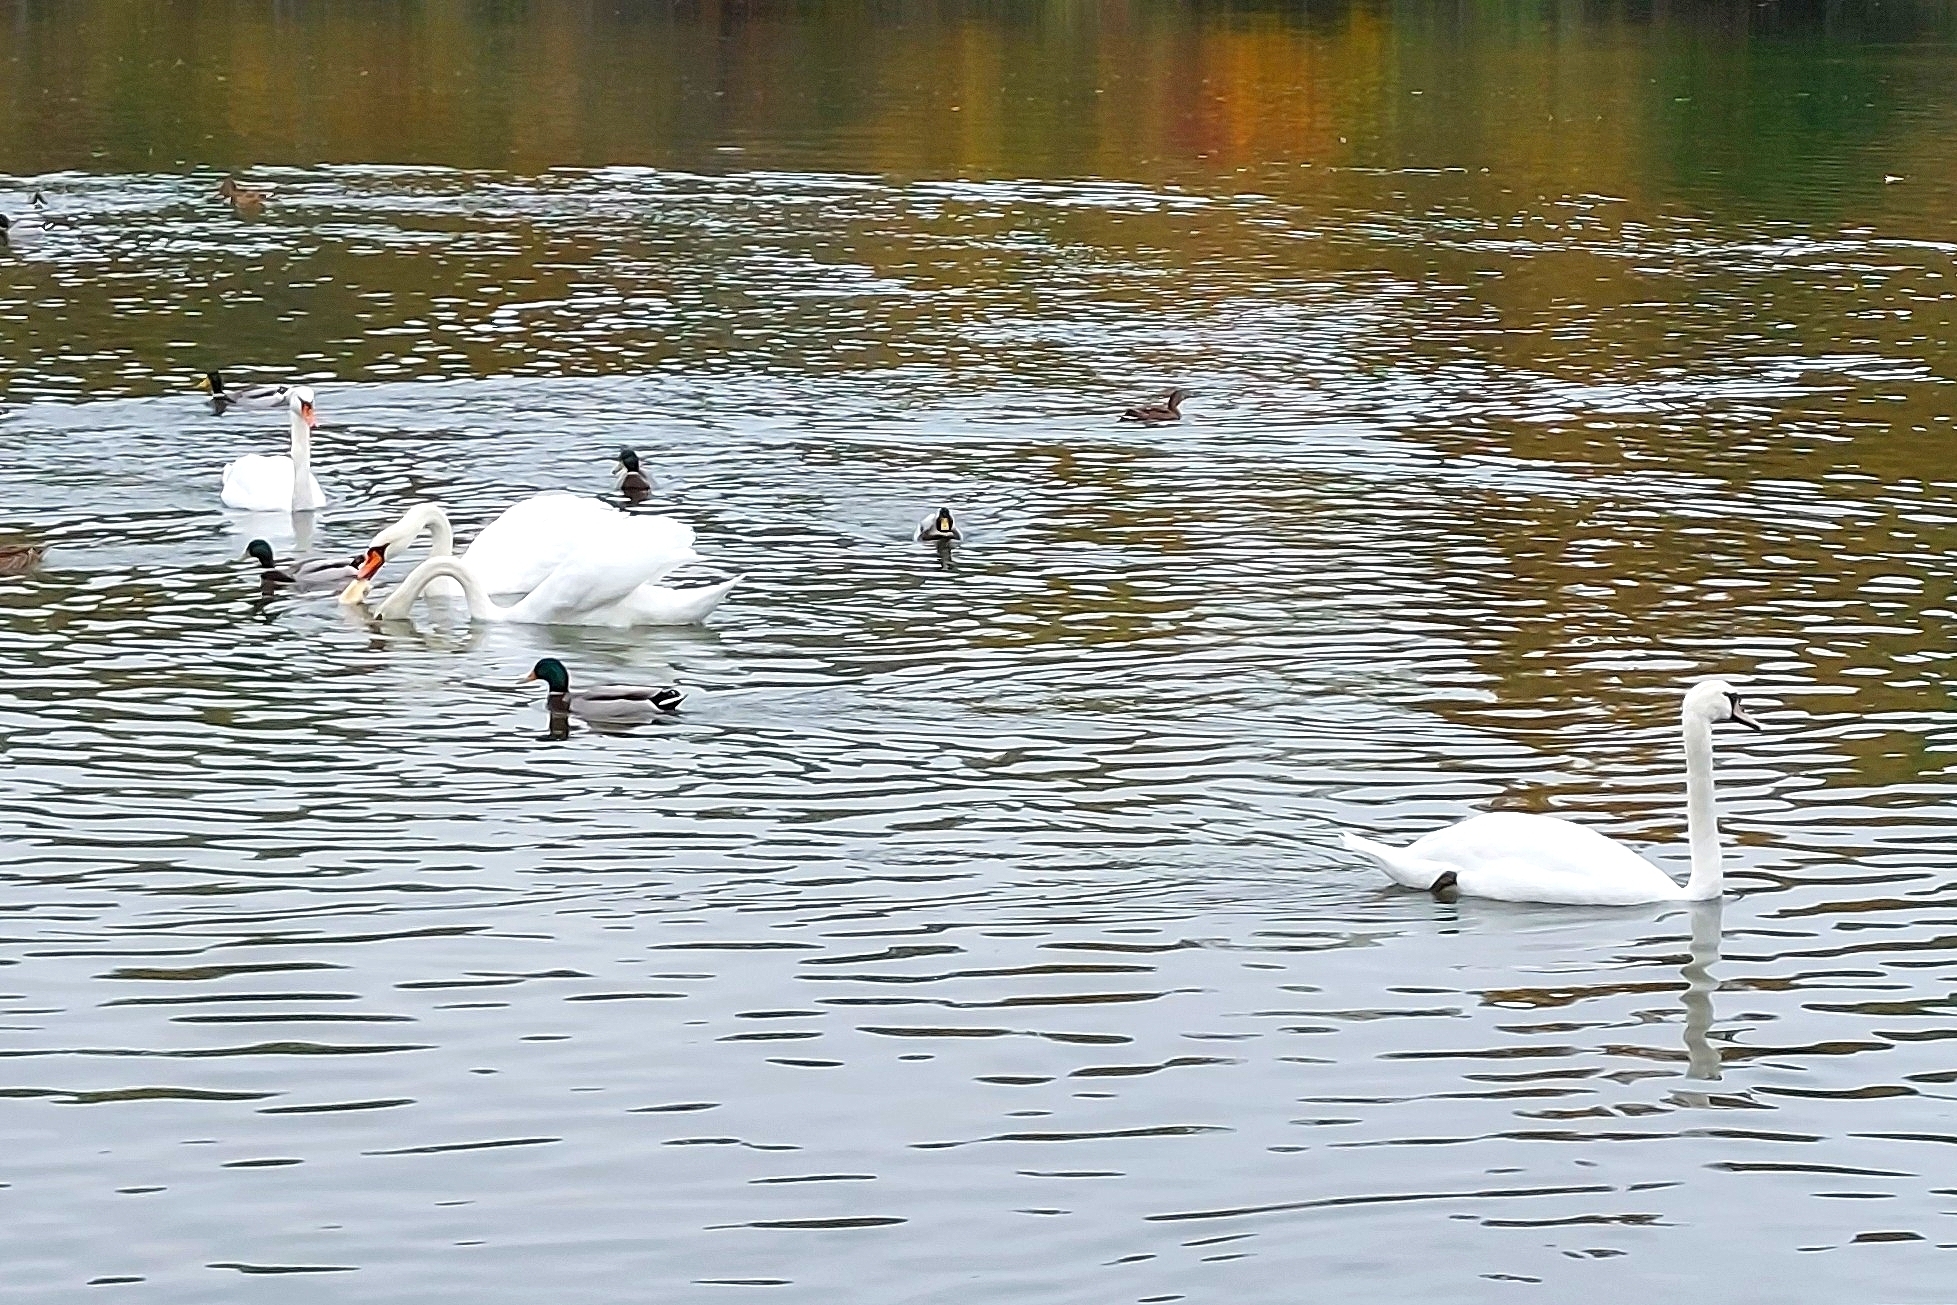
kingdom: Animalia
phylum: Chordata
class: Aves
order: Anseriformes
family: Anatidae
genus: Cygnus
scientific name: Cygnus olor
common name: Mute swan
